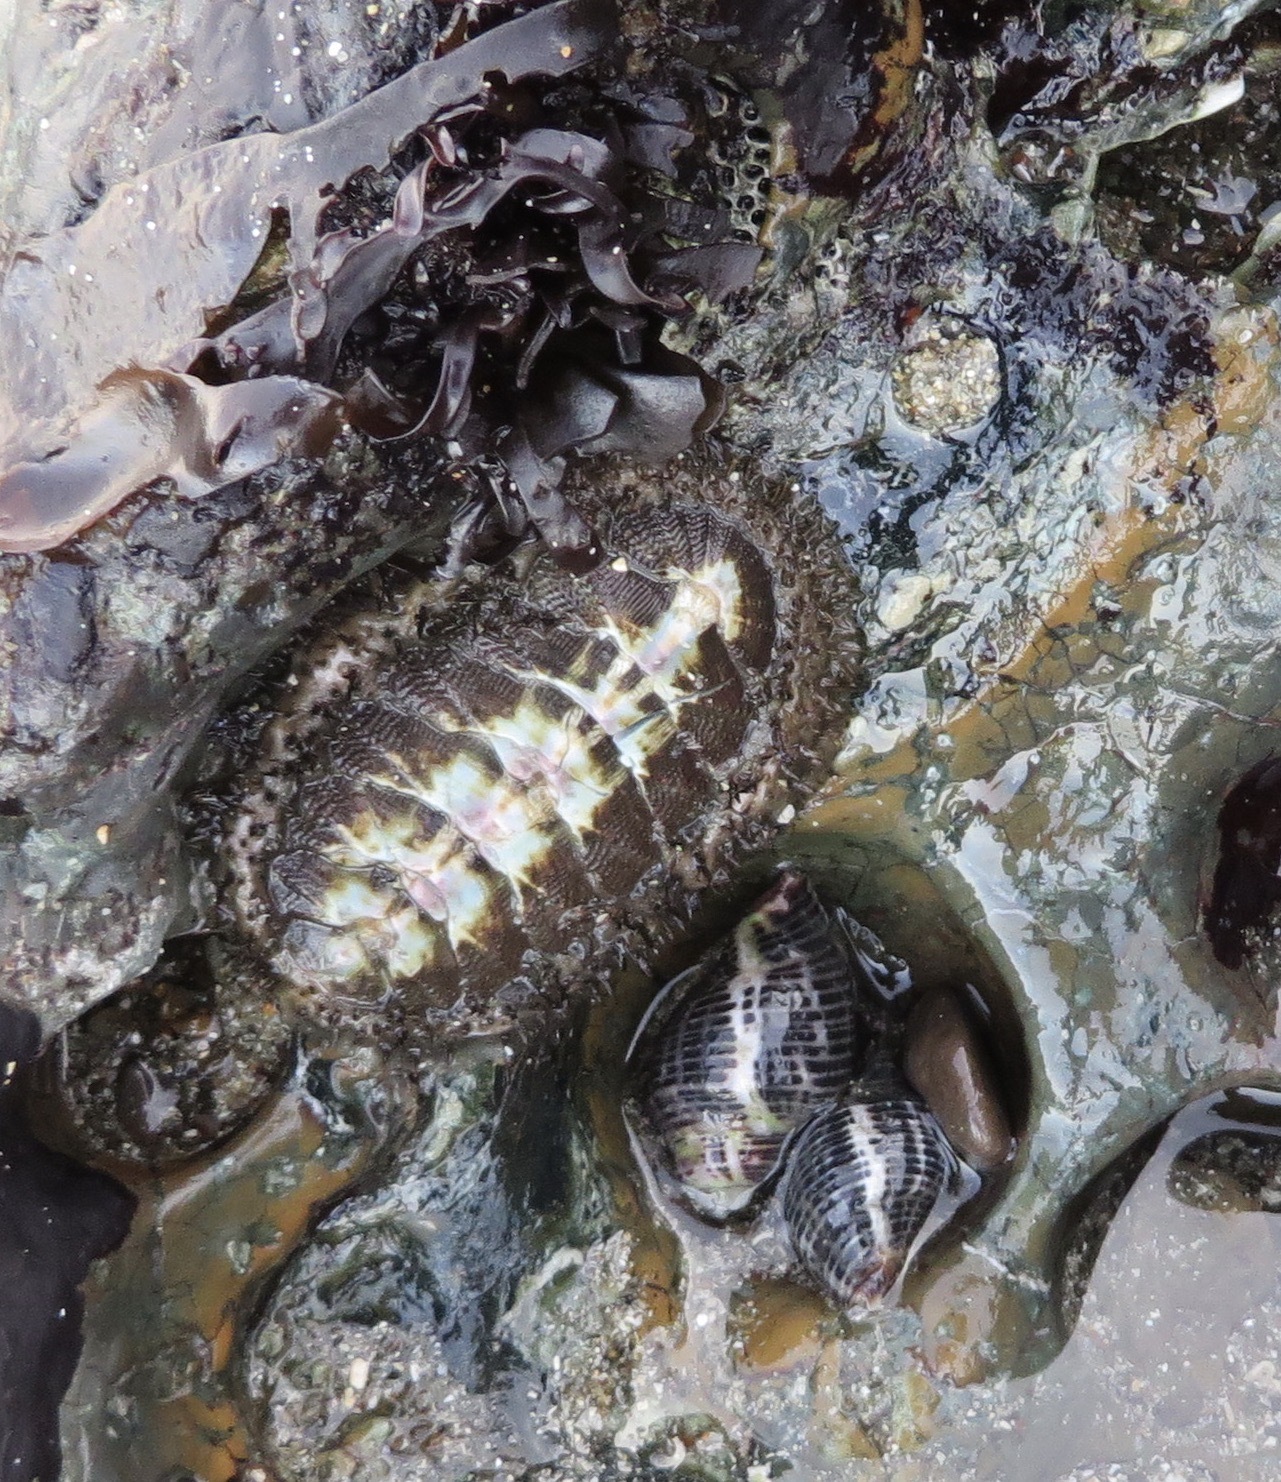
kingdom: Animalia
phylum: Mollusca
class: Polyplacophora
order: Chitonida
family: Mopaliidae
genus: Mopalia
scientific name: Mopalia muscosa
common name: Mossy chiton
